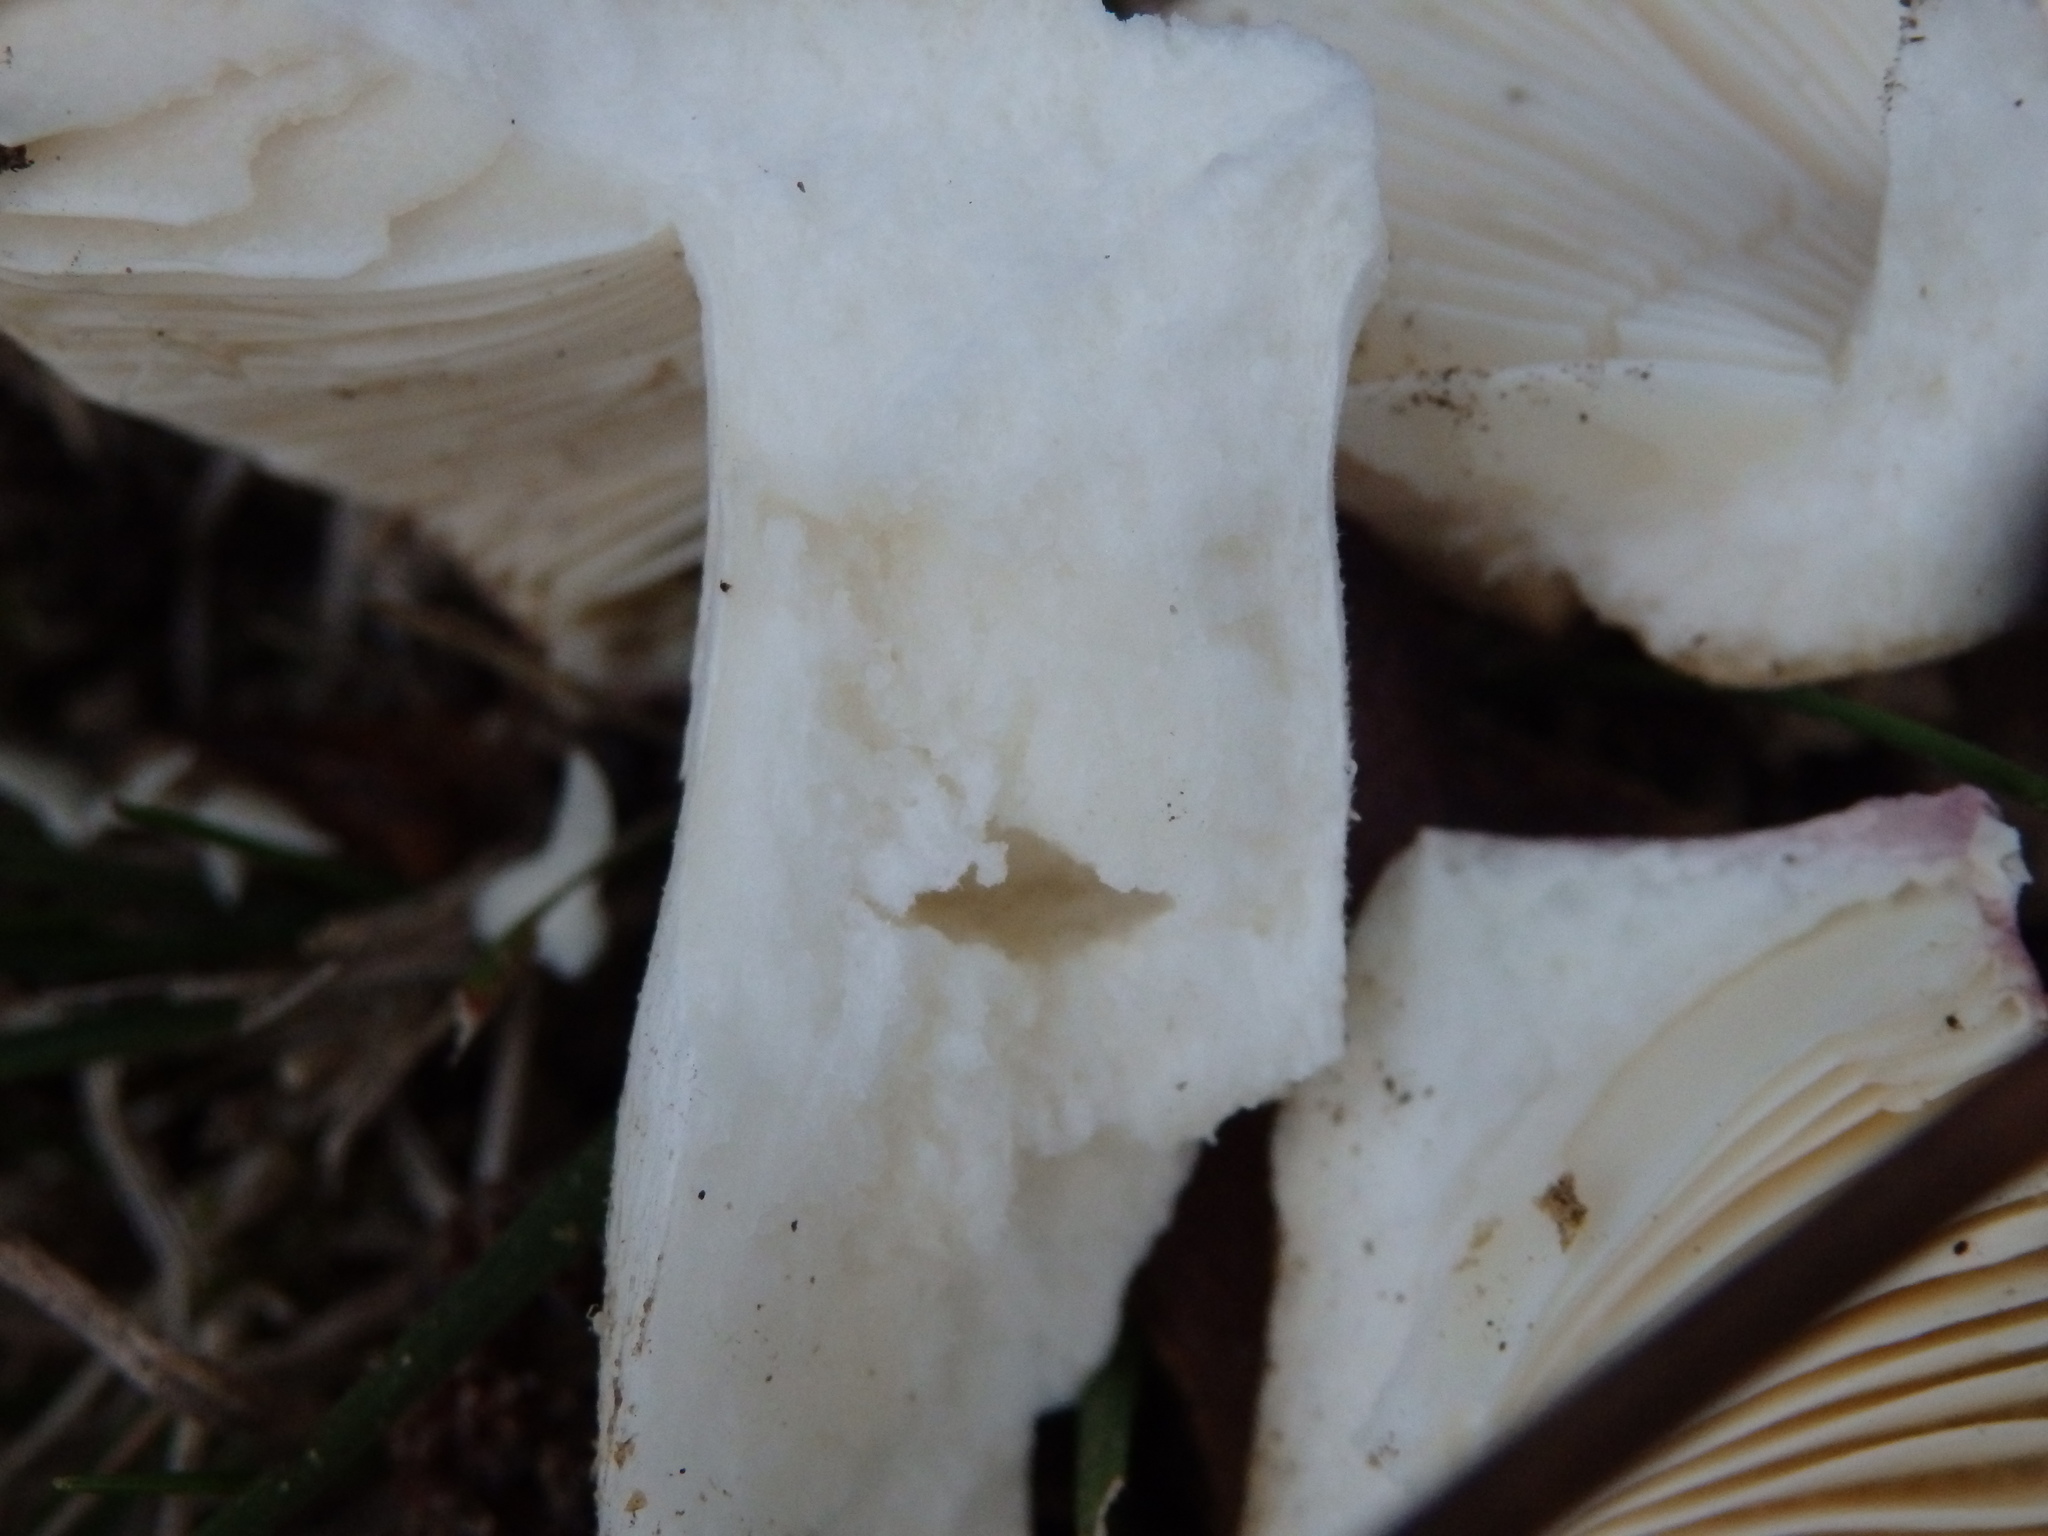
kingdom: Fungi
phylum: Basidiomycota
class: Agaricomycetes
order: Russulales
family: Russulaceae
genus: Russula
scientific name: Russula cyanoxantha
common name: Charcoal burner
